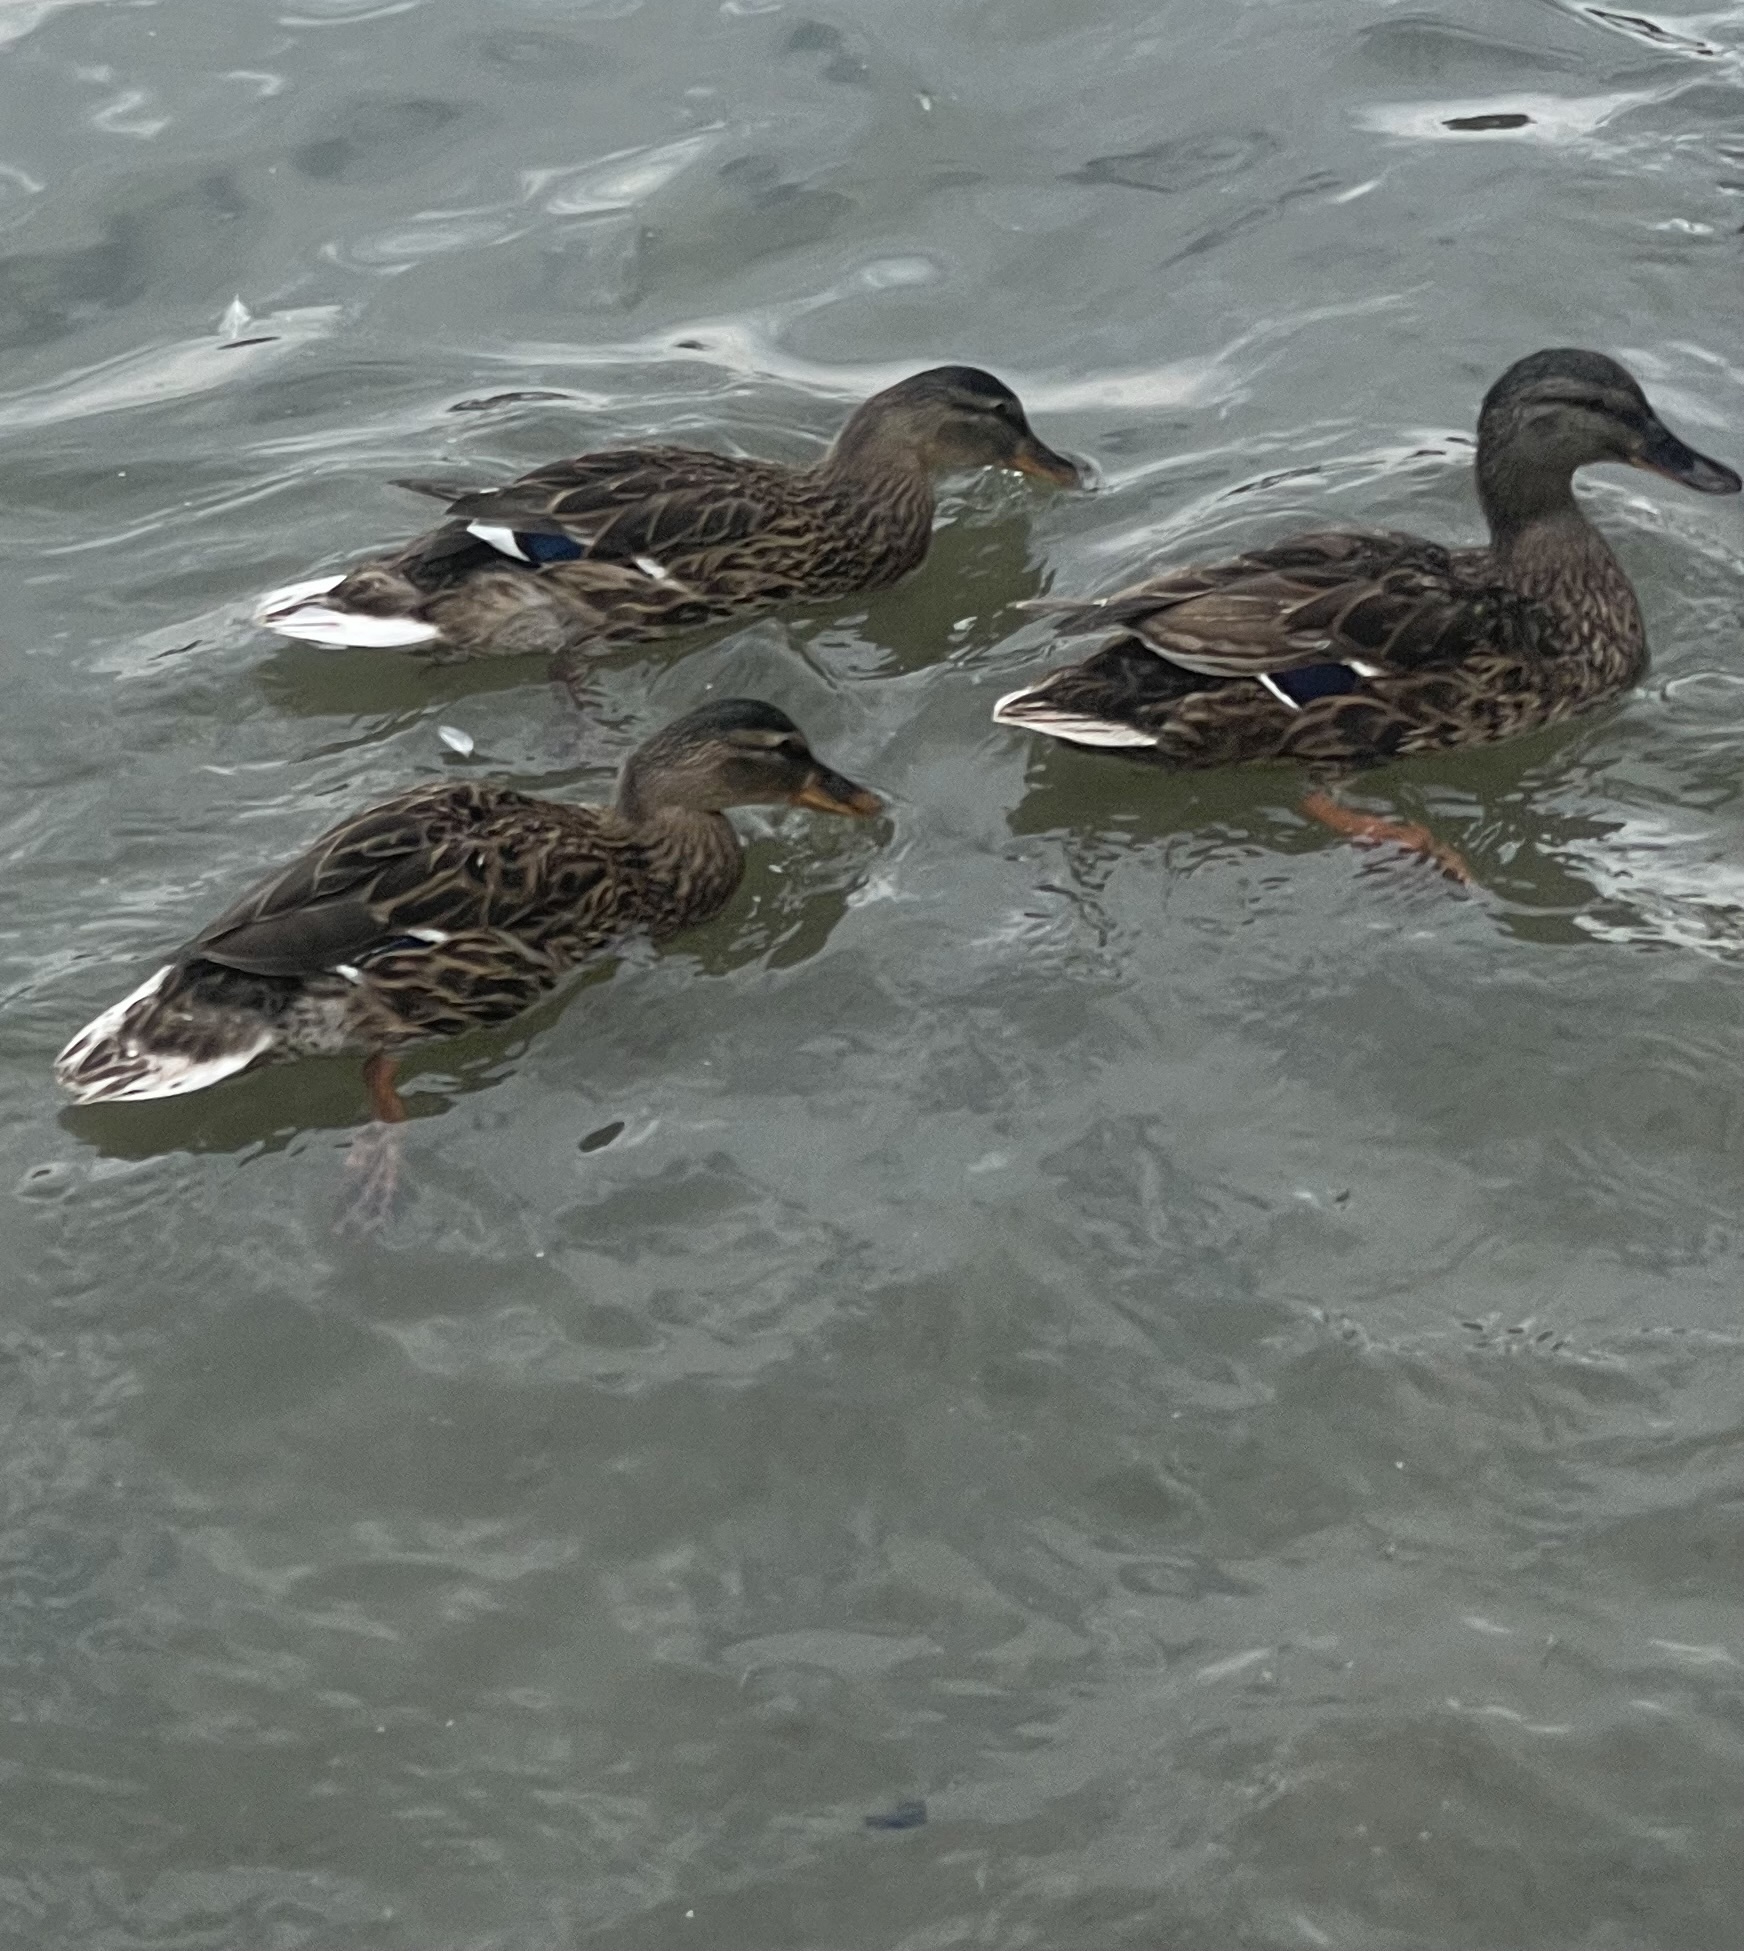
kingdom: Animalia
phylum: Chordata
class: Aves
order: Anseriformes
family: Anatidae
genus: Anas
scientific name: Anas platyrhynchos
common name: Mallard
